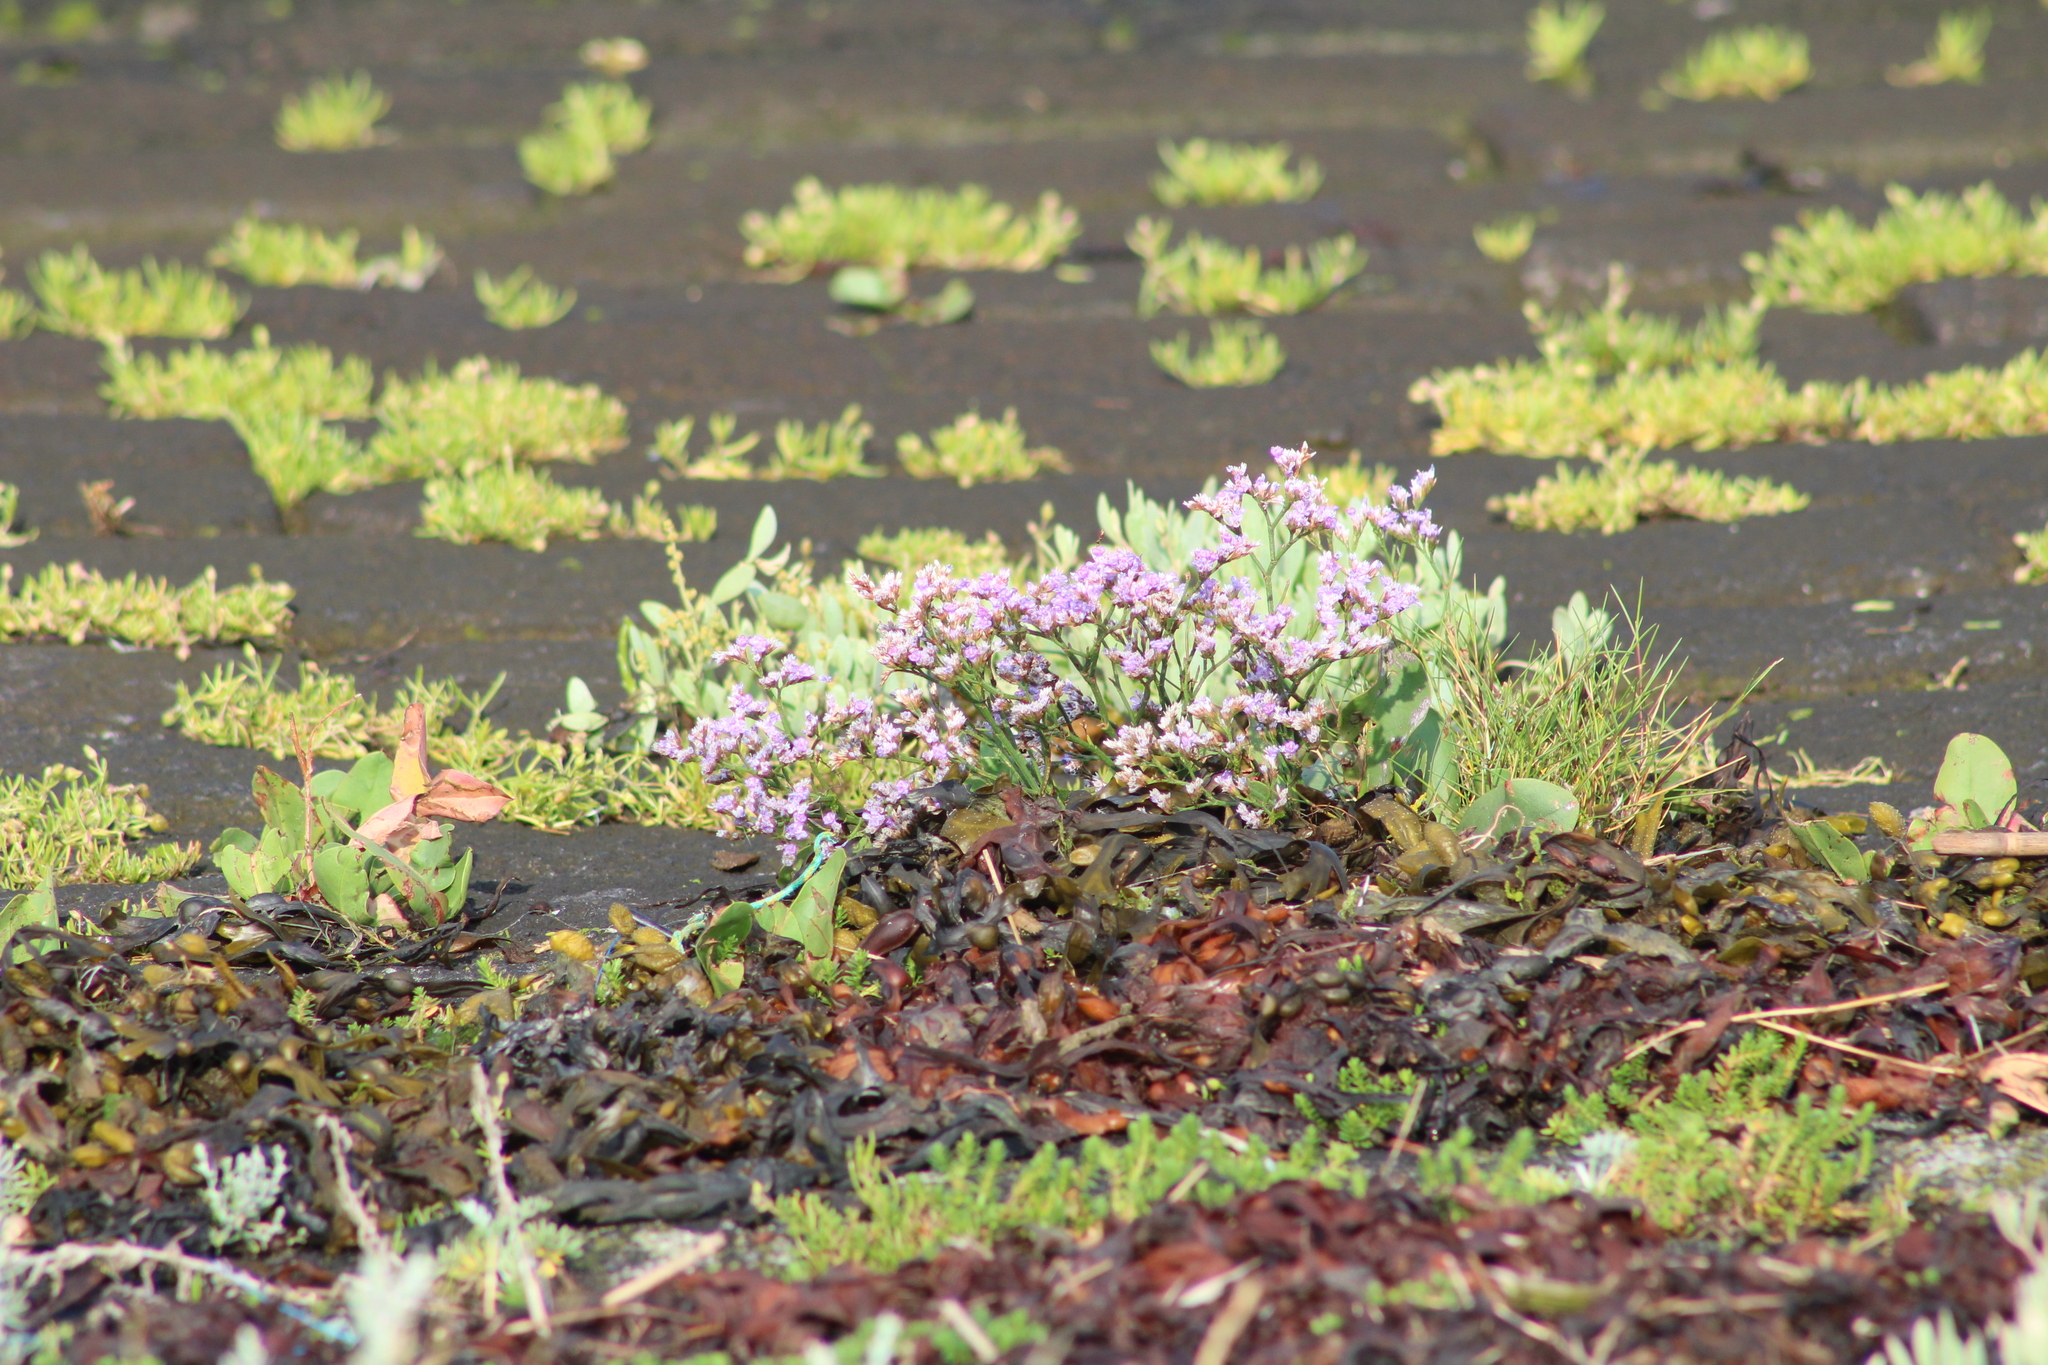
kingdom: Plantae
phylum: Tracheophyta
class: Magnoliopsida
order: Caryophyllales
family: Plumbaginaceae
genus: Limonium
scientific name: Limonium vulgare
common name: Common sea-lavender
